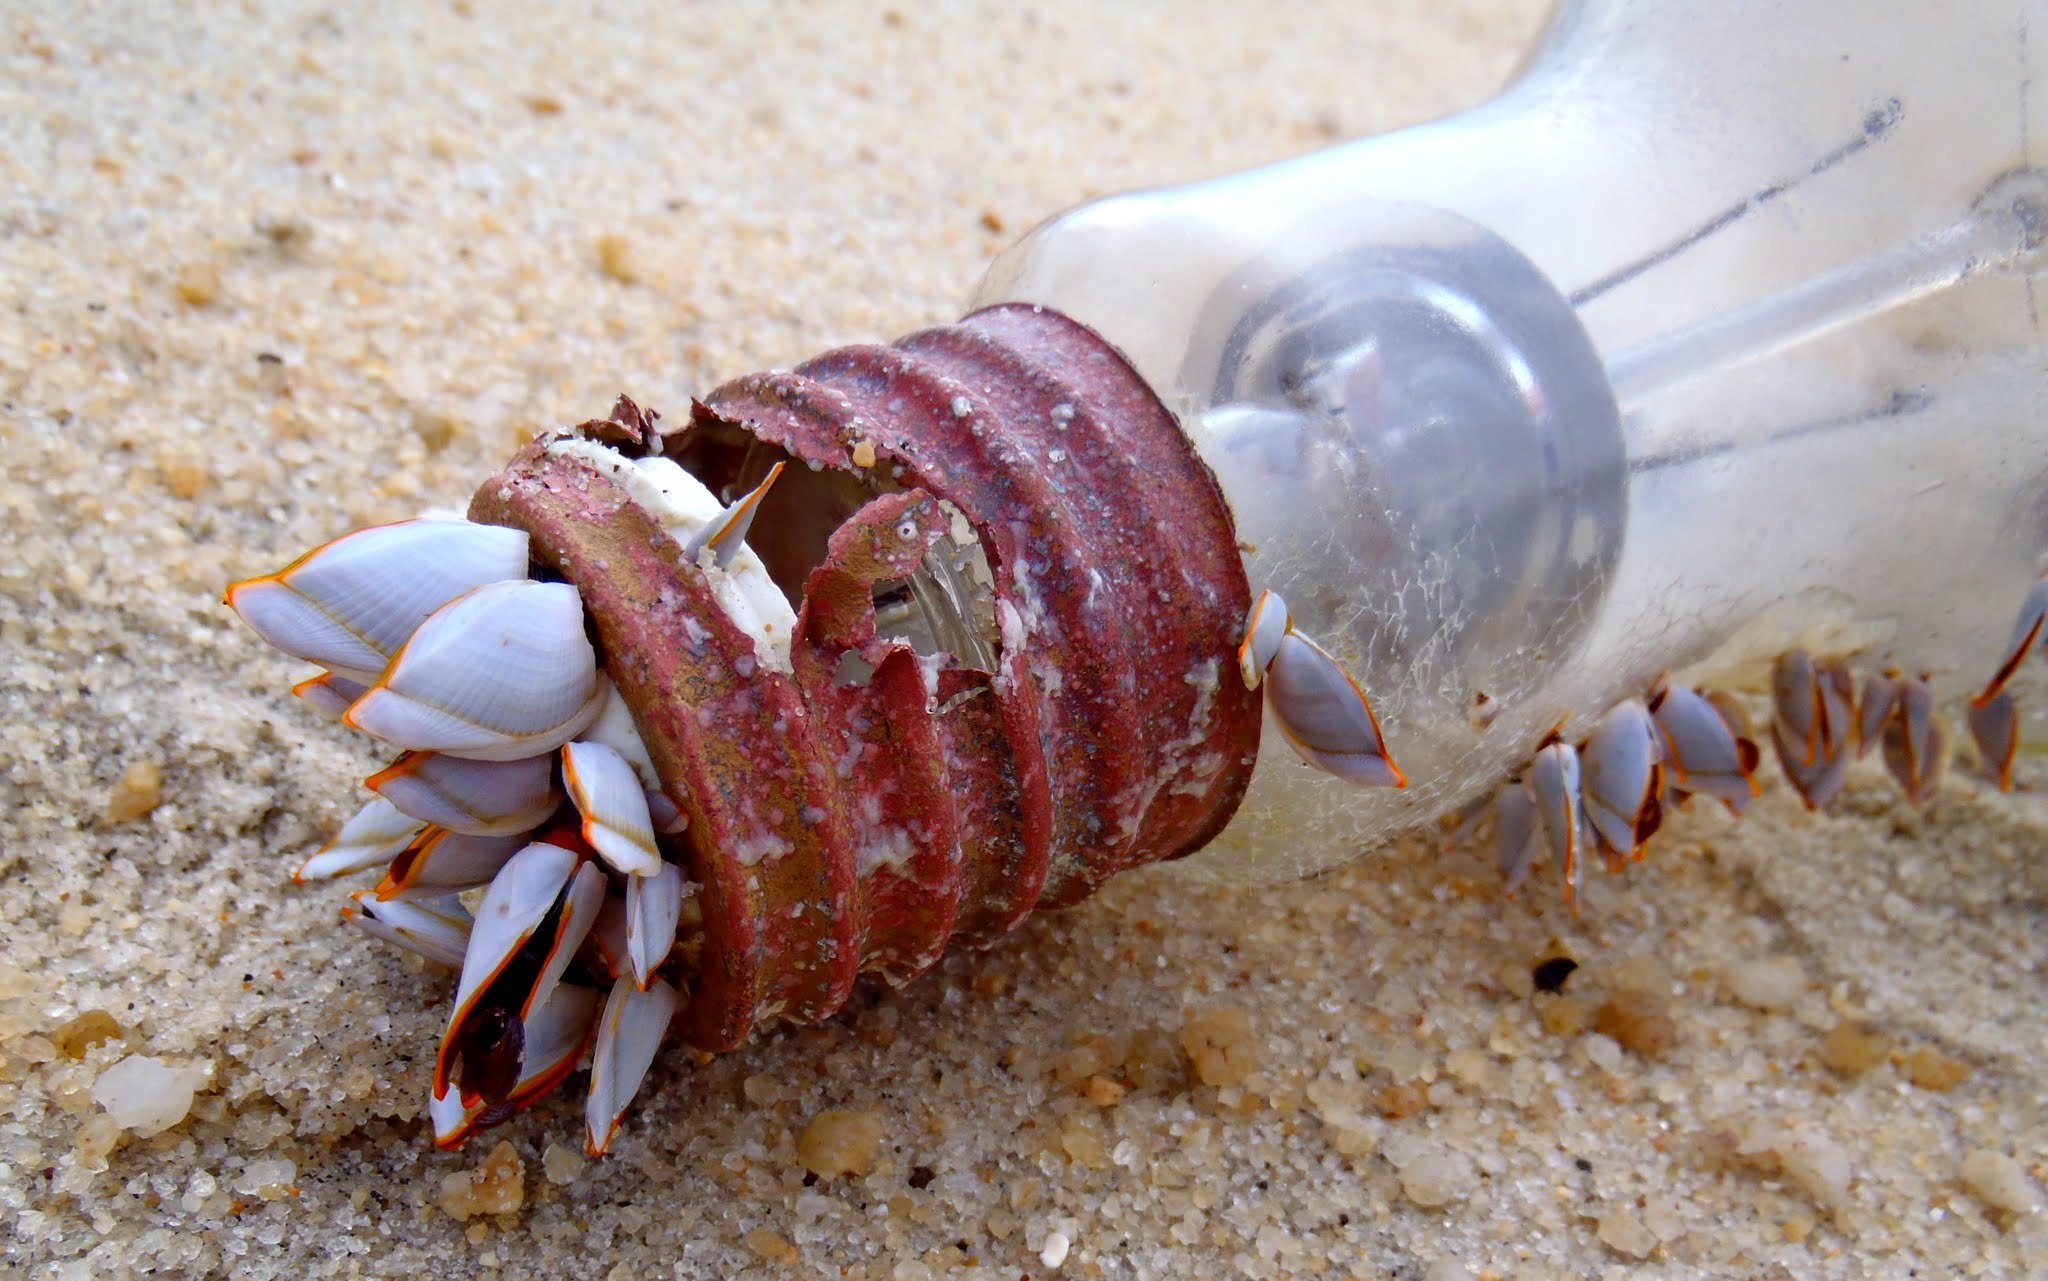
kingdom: Animalia
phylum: Arthropoda
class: Maxillopoda
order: Pedunculata
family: Lepadidae
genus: Lepas
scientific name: Lepas anserifera
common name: Goose barnacle
